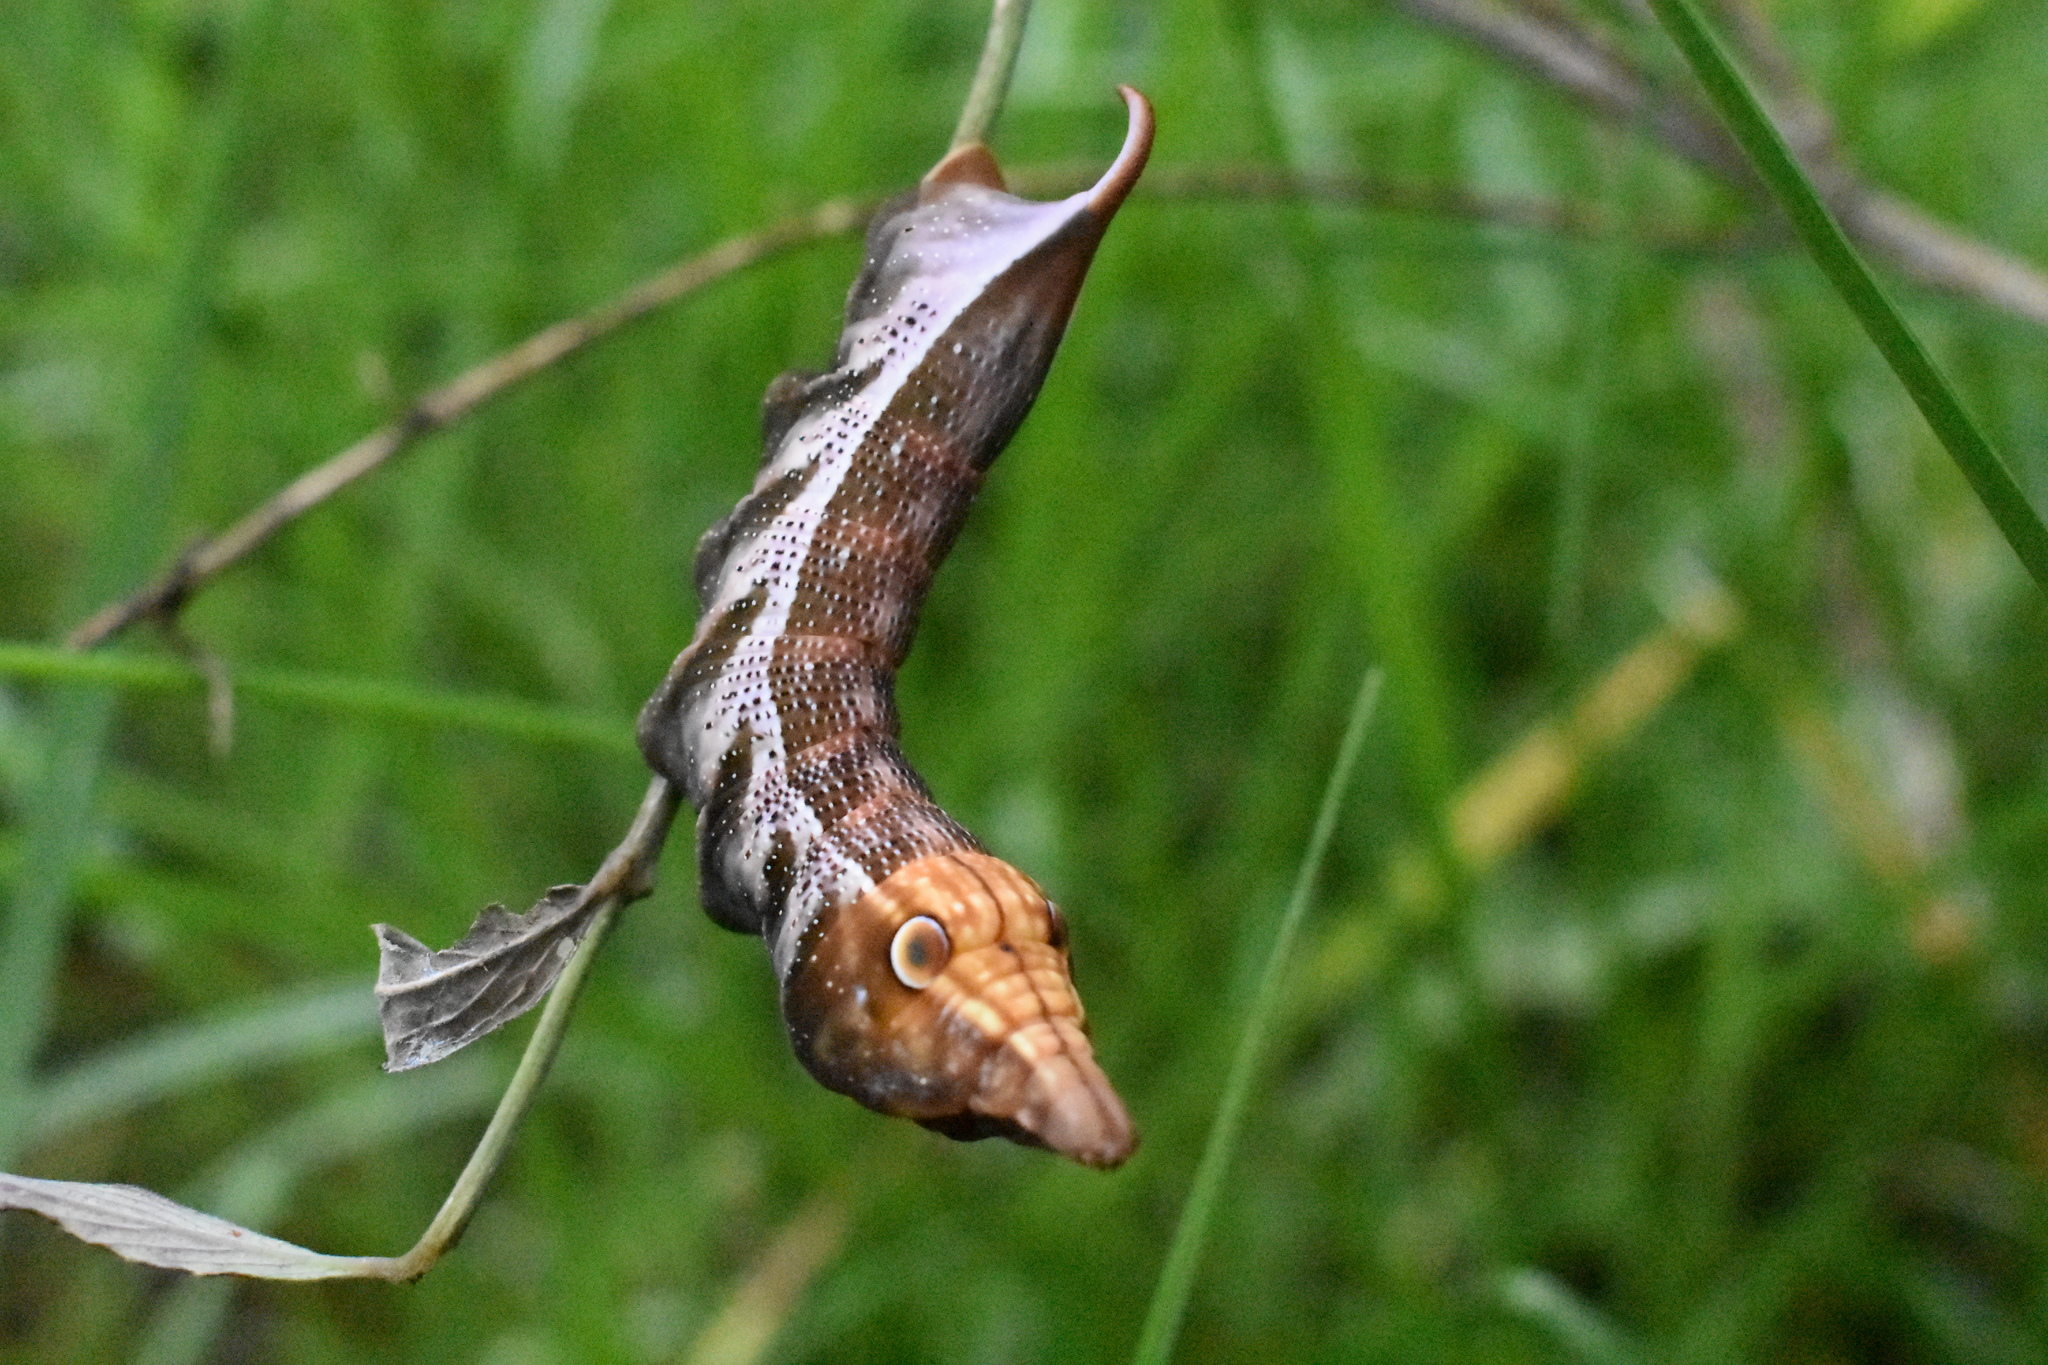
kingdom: Animalia
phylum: Arthropoda
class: Insecta
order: Lepidoptera
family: Sphingidae
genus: Xylophanes
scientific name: Xylophanes pluto
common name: Pluto sphinx
